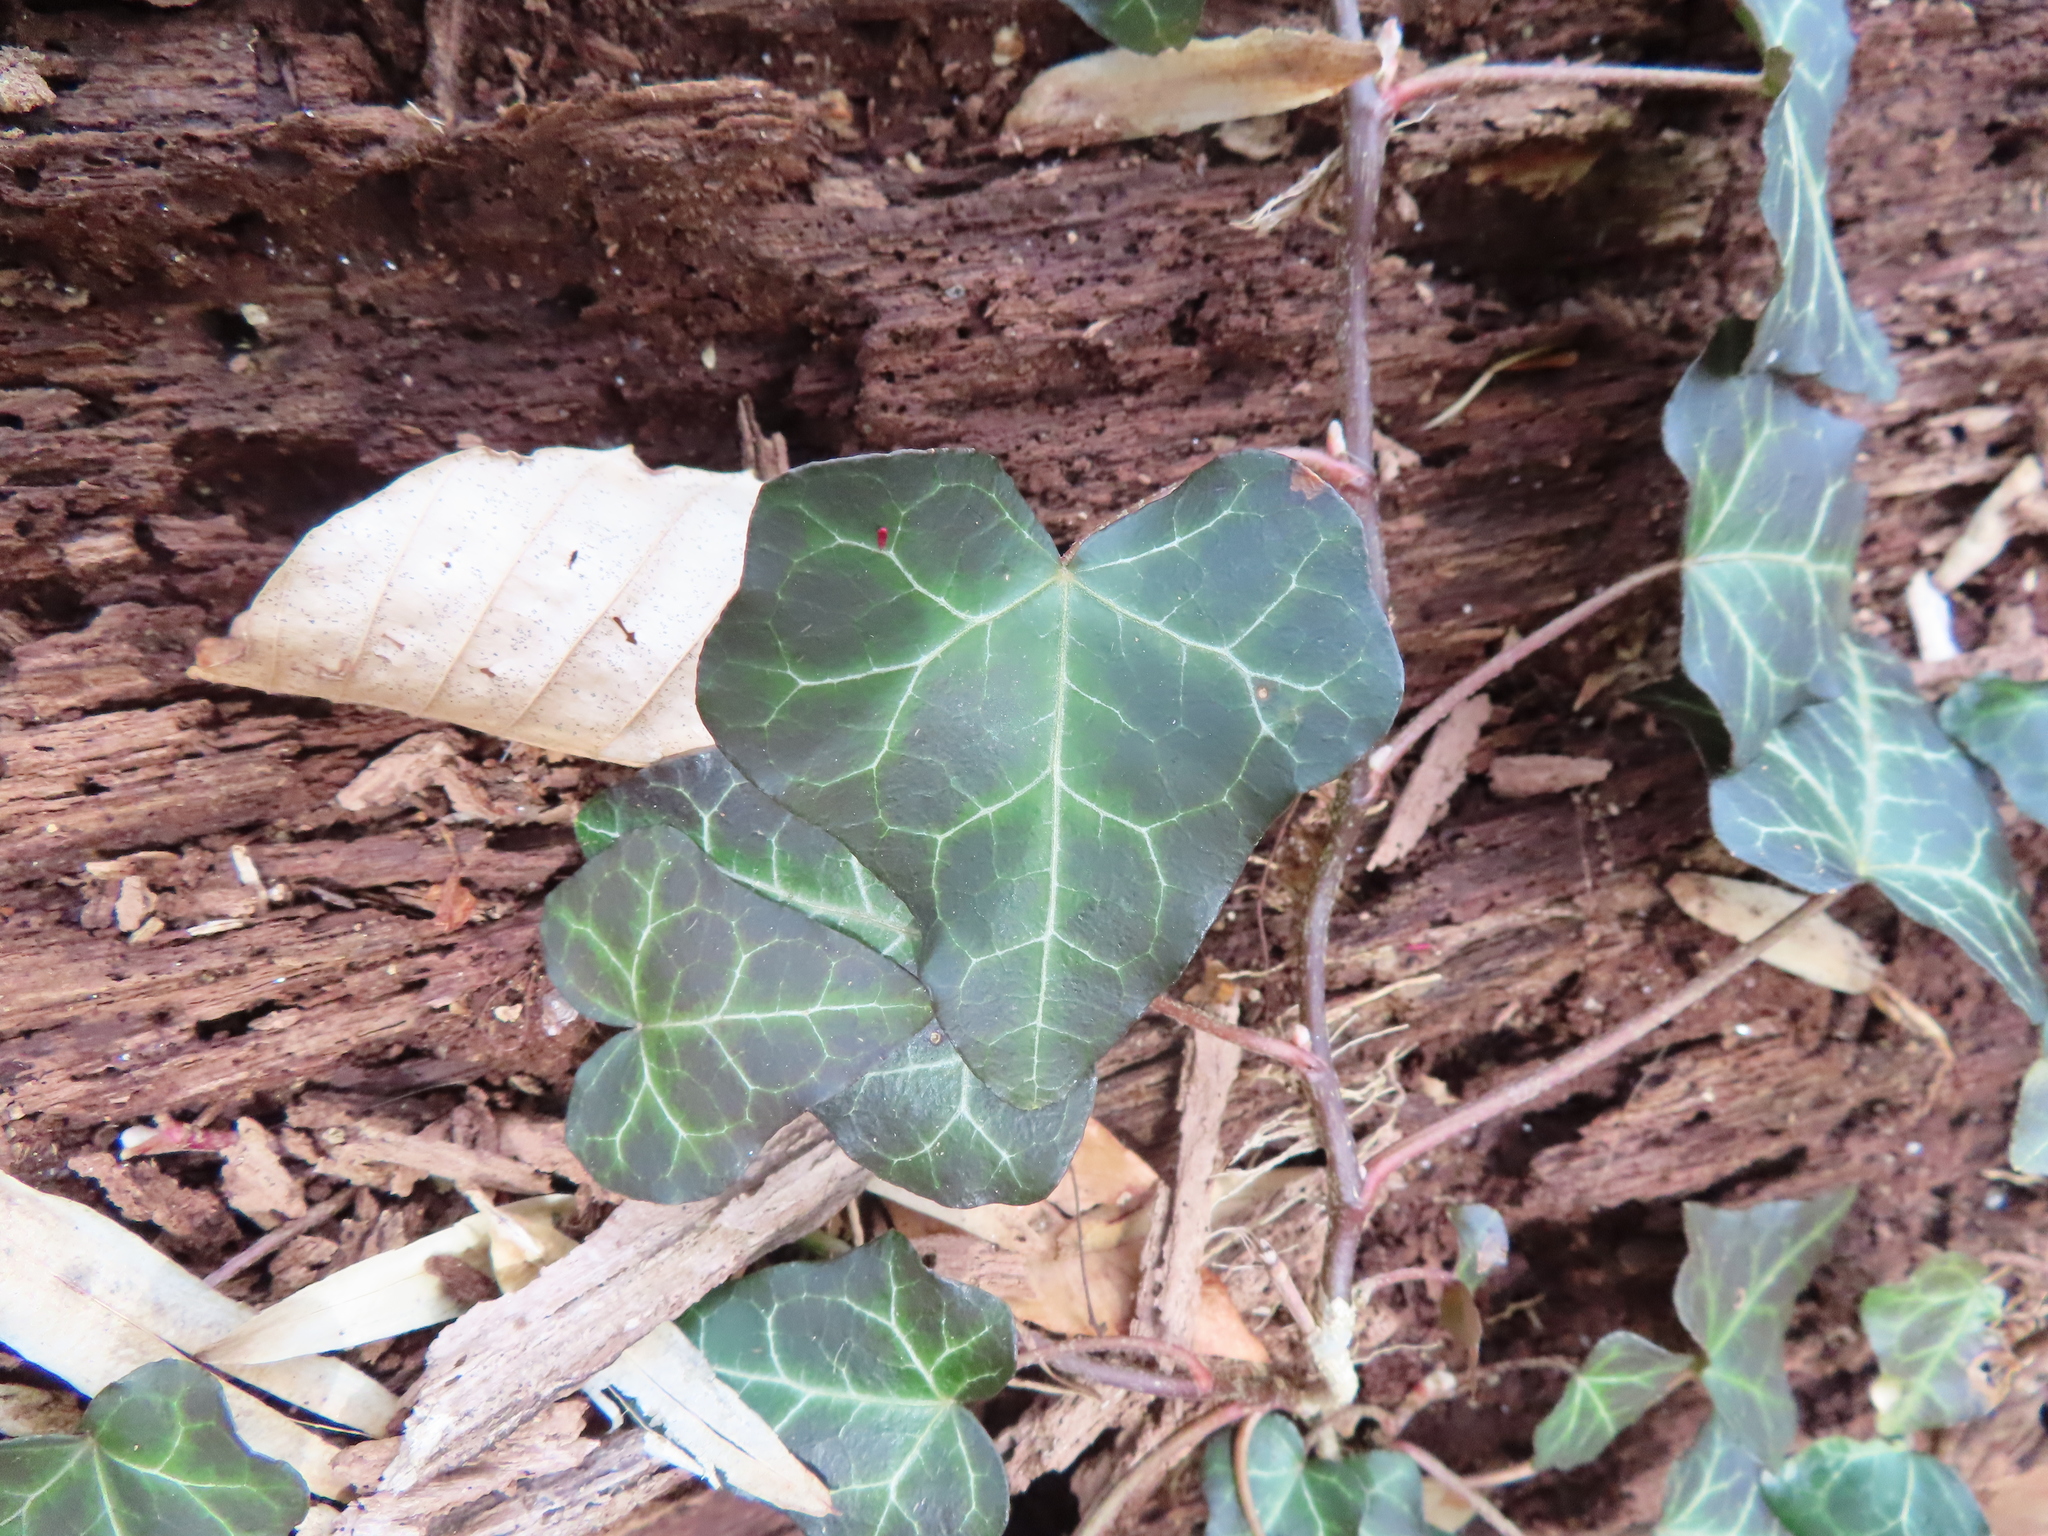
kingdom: Plantae
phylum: Tracheophyta
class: Magnoliopsida
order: Apiales
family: Araliaceae
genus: Hedera
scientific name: Hedera helix
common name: Ivy
